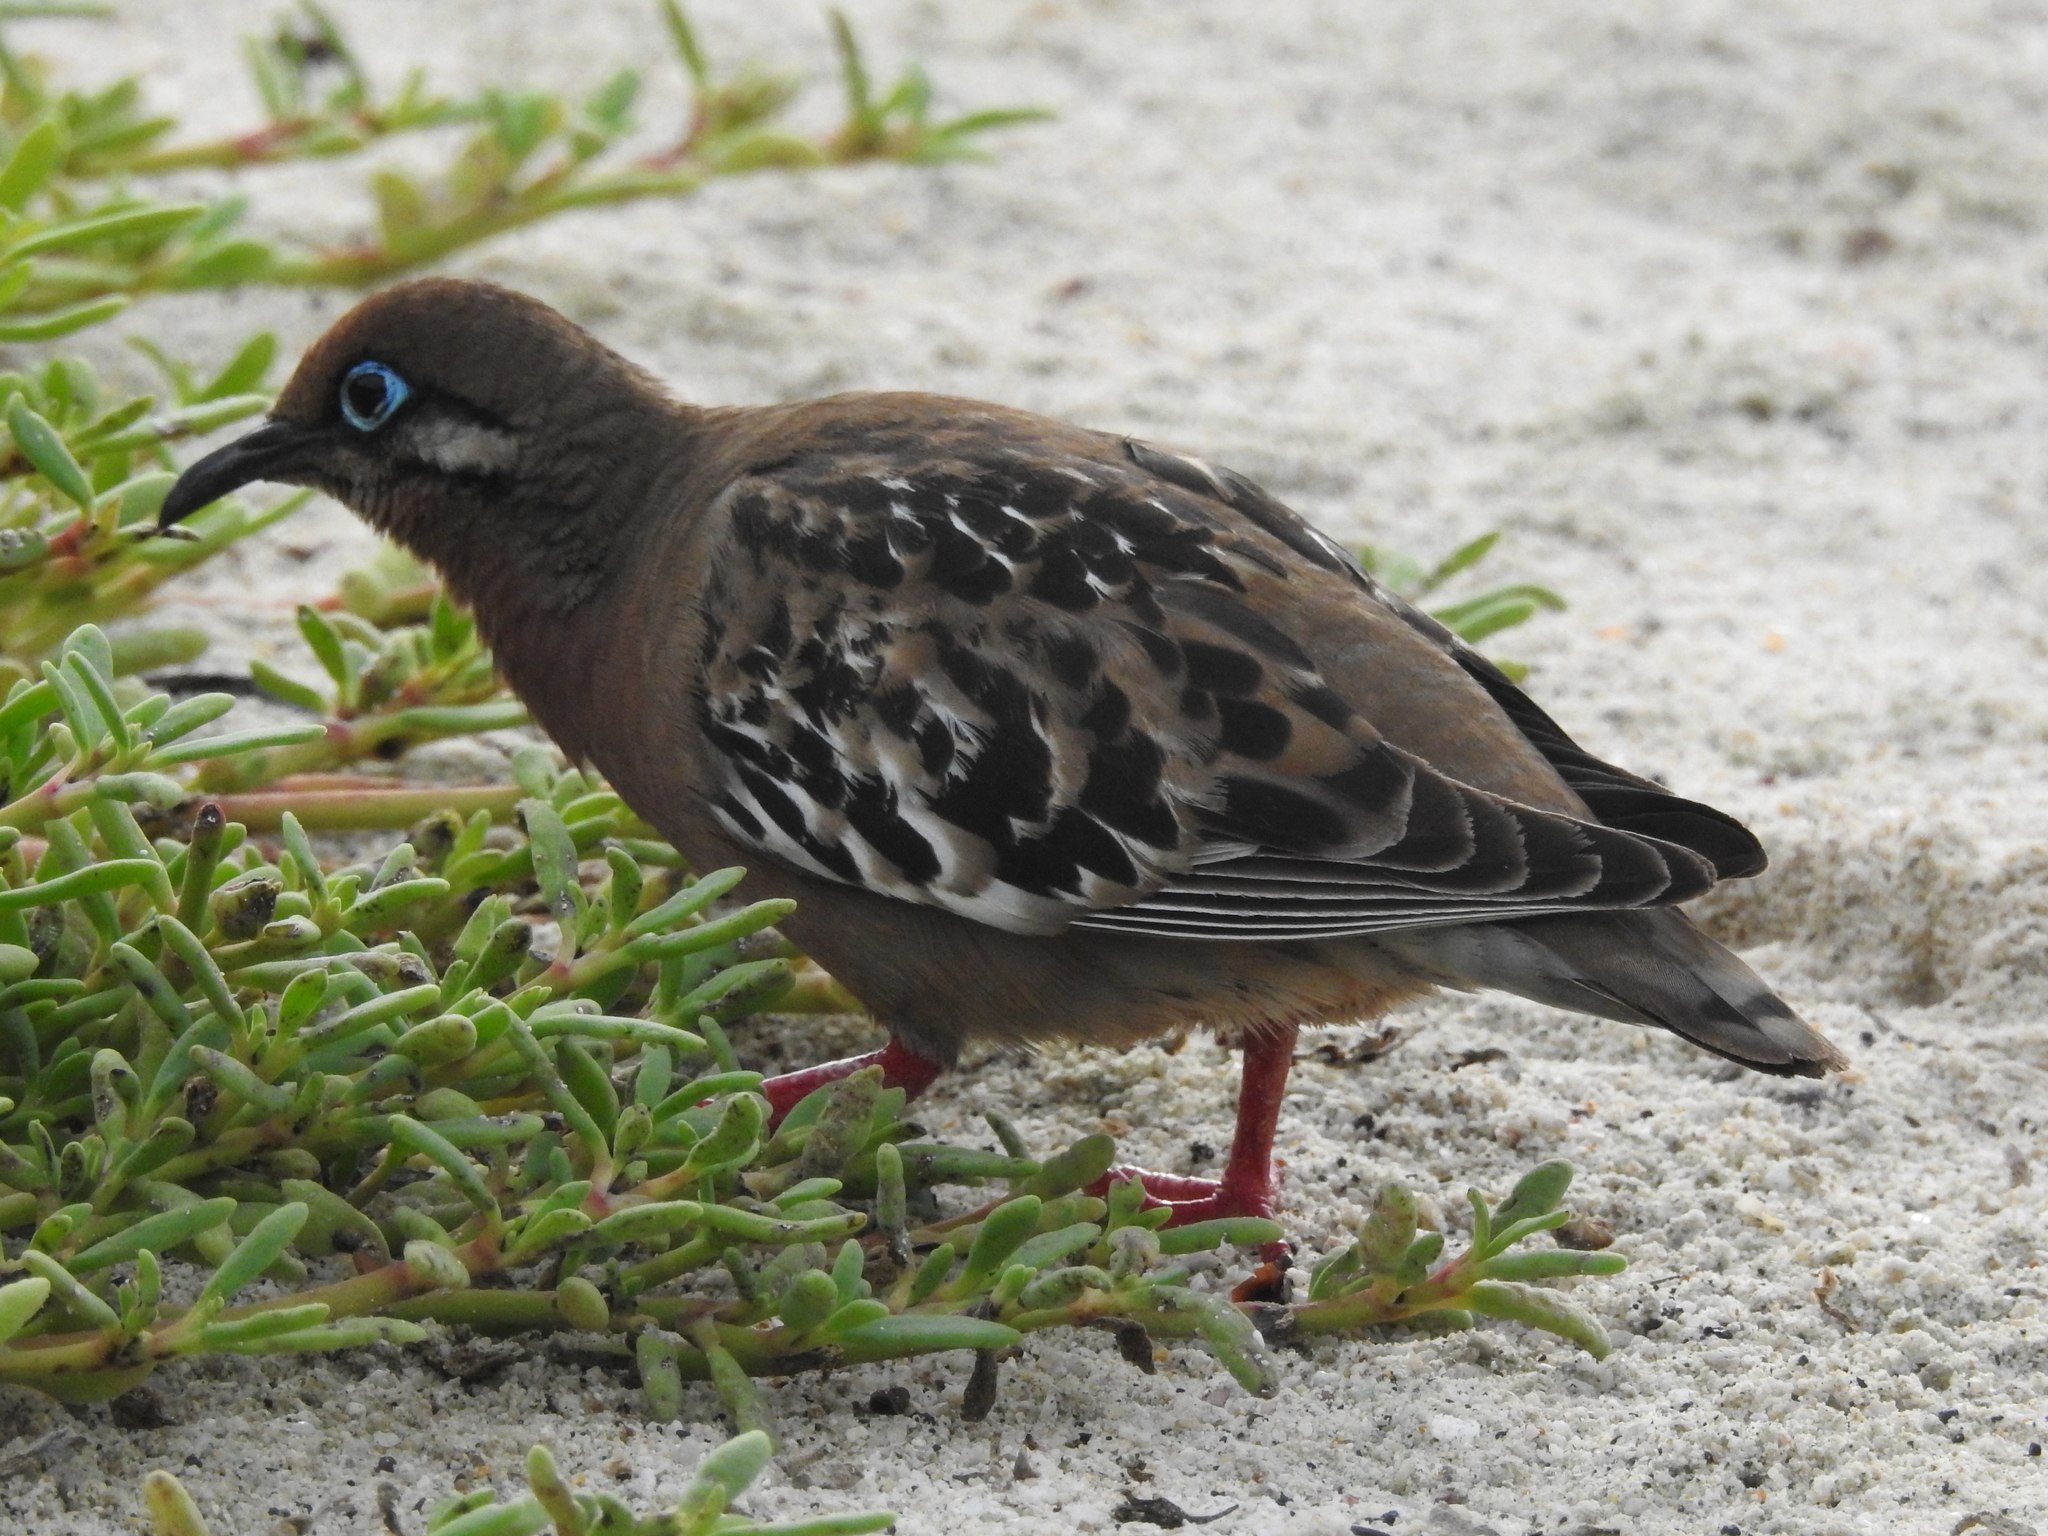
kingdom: Animalia
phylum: Chordata
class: Aves
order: Columbiformes
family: Columbidae
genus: Zenaida
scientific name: Zenaida galapagoensis
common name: Galapagos dove
